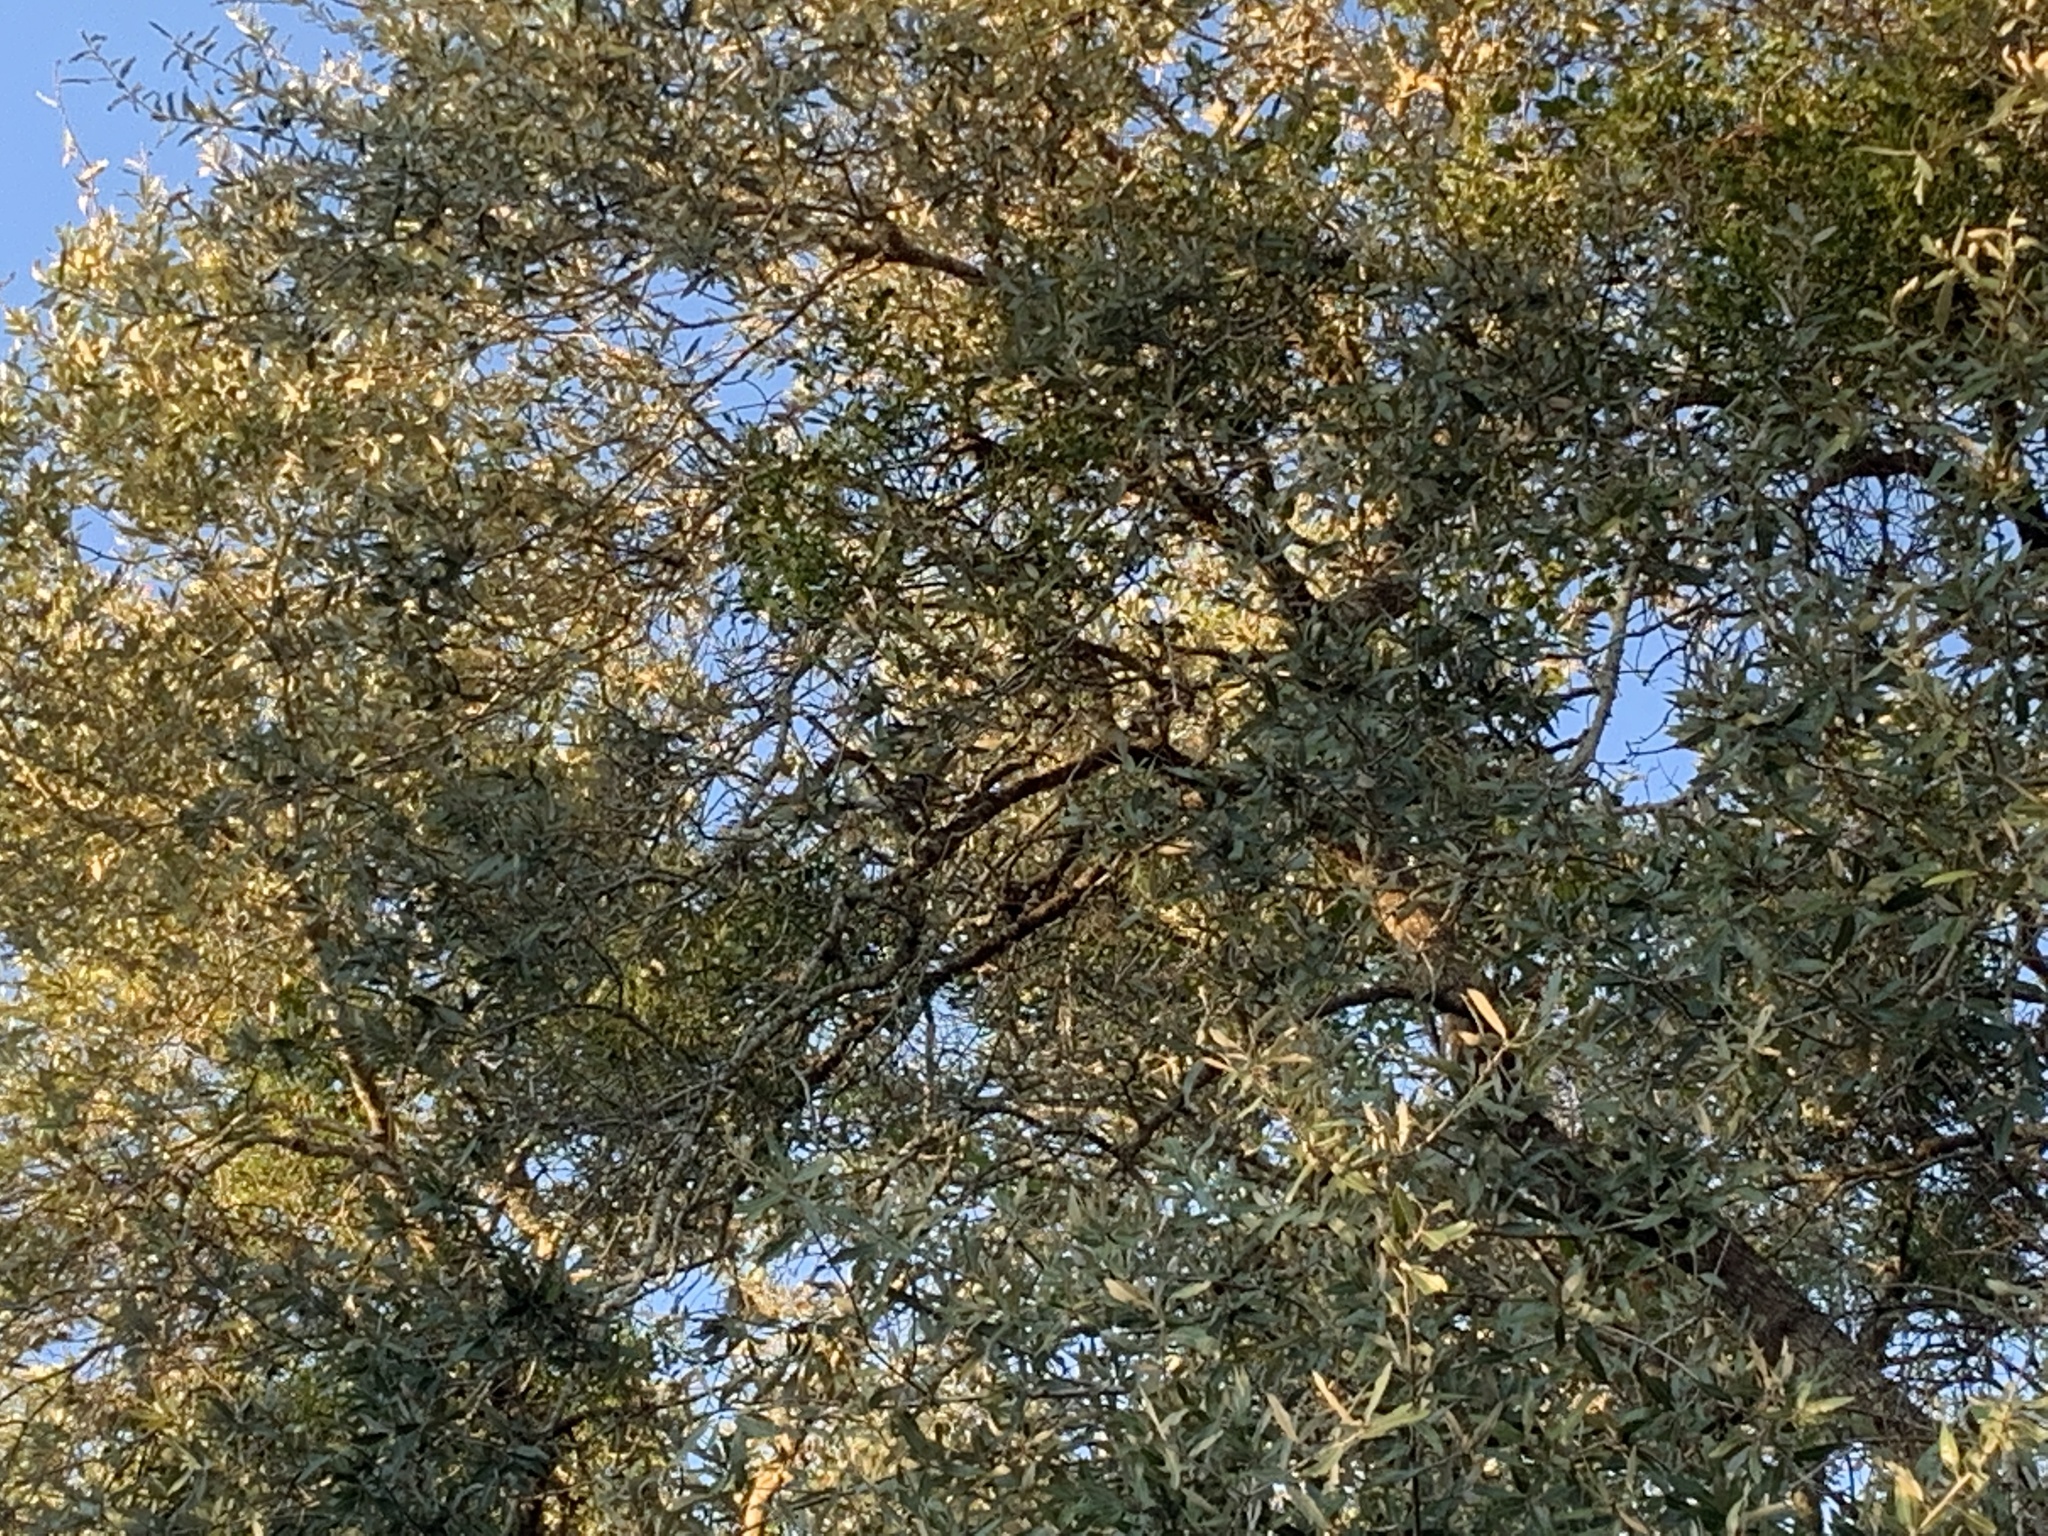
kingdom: Animalia
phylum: Chordata
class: Aves
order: Passeriformes
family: Corvidae
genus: Cyanocitta
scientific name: Cyanocitta cristata
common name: Blue jay
